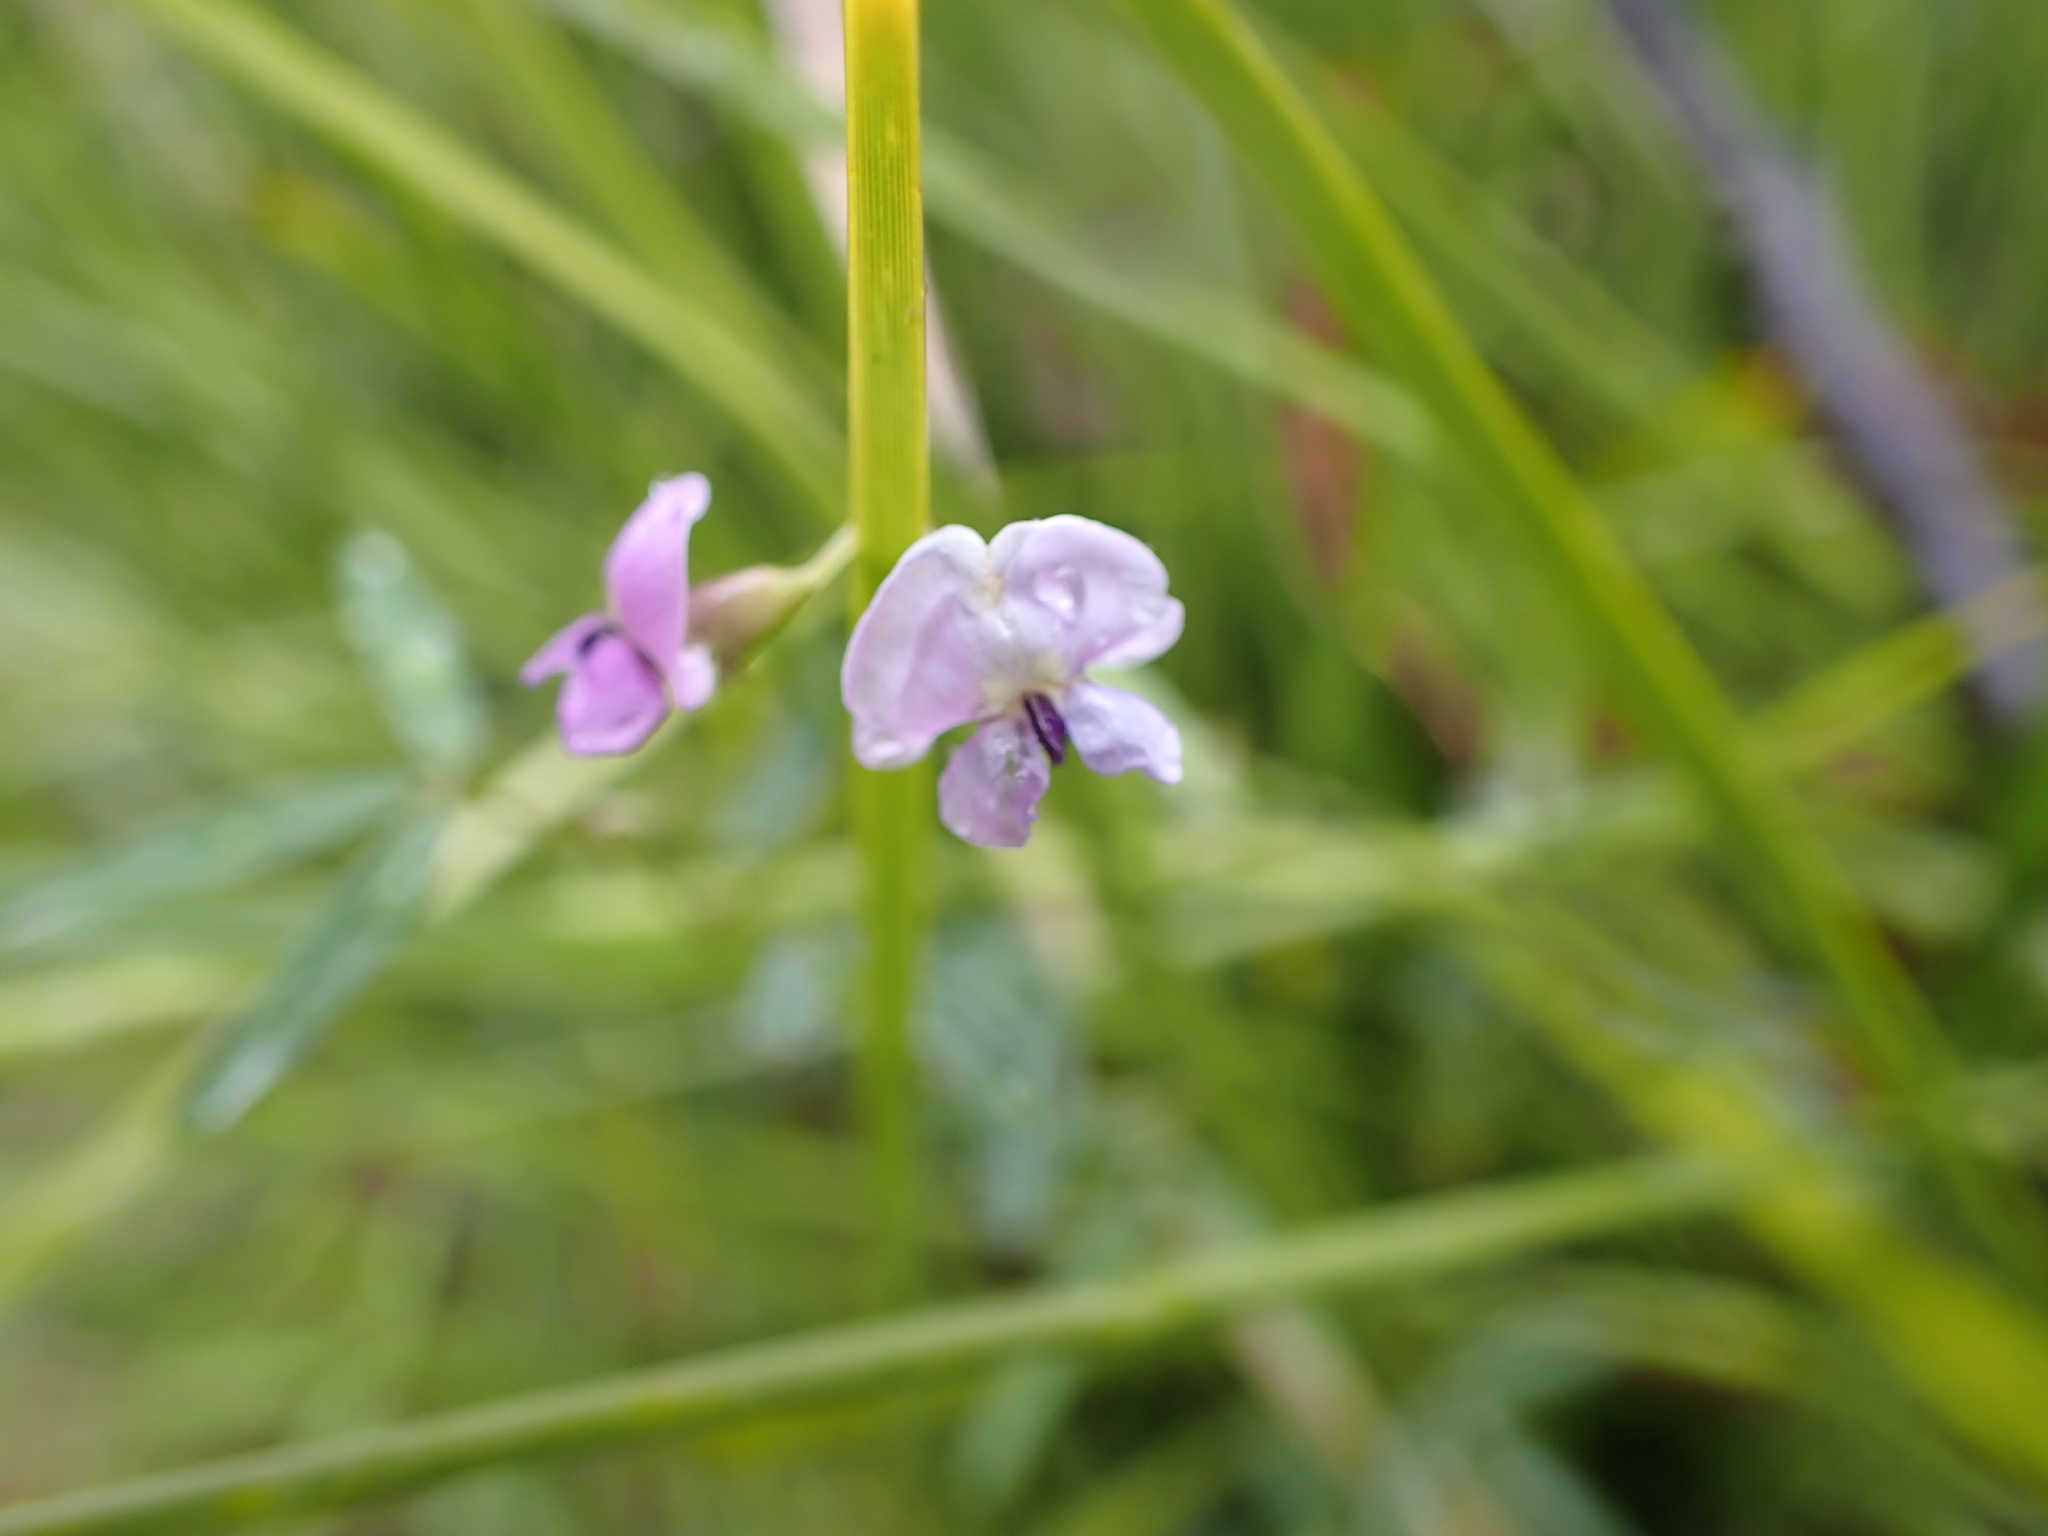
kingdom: Plantae
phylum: Tracheophyta
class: Magnoliopsida
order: Fabales
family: Fabaceae
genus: Glycine
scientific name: Glycine clandestina
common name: Twining glycine
